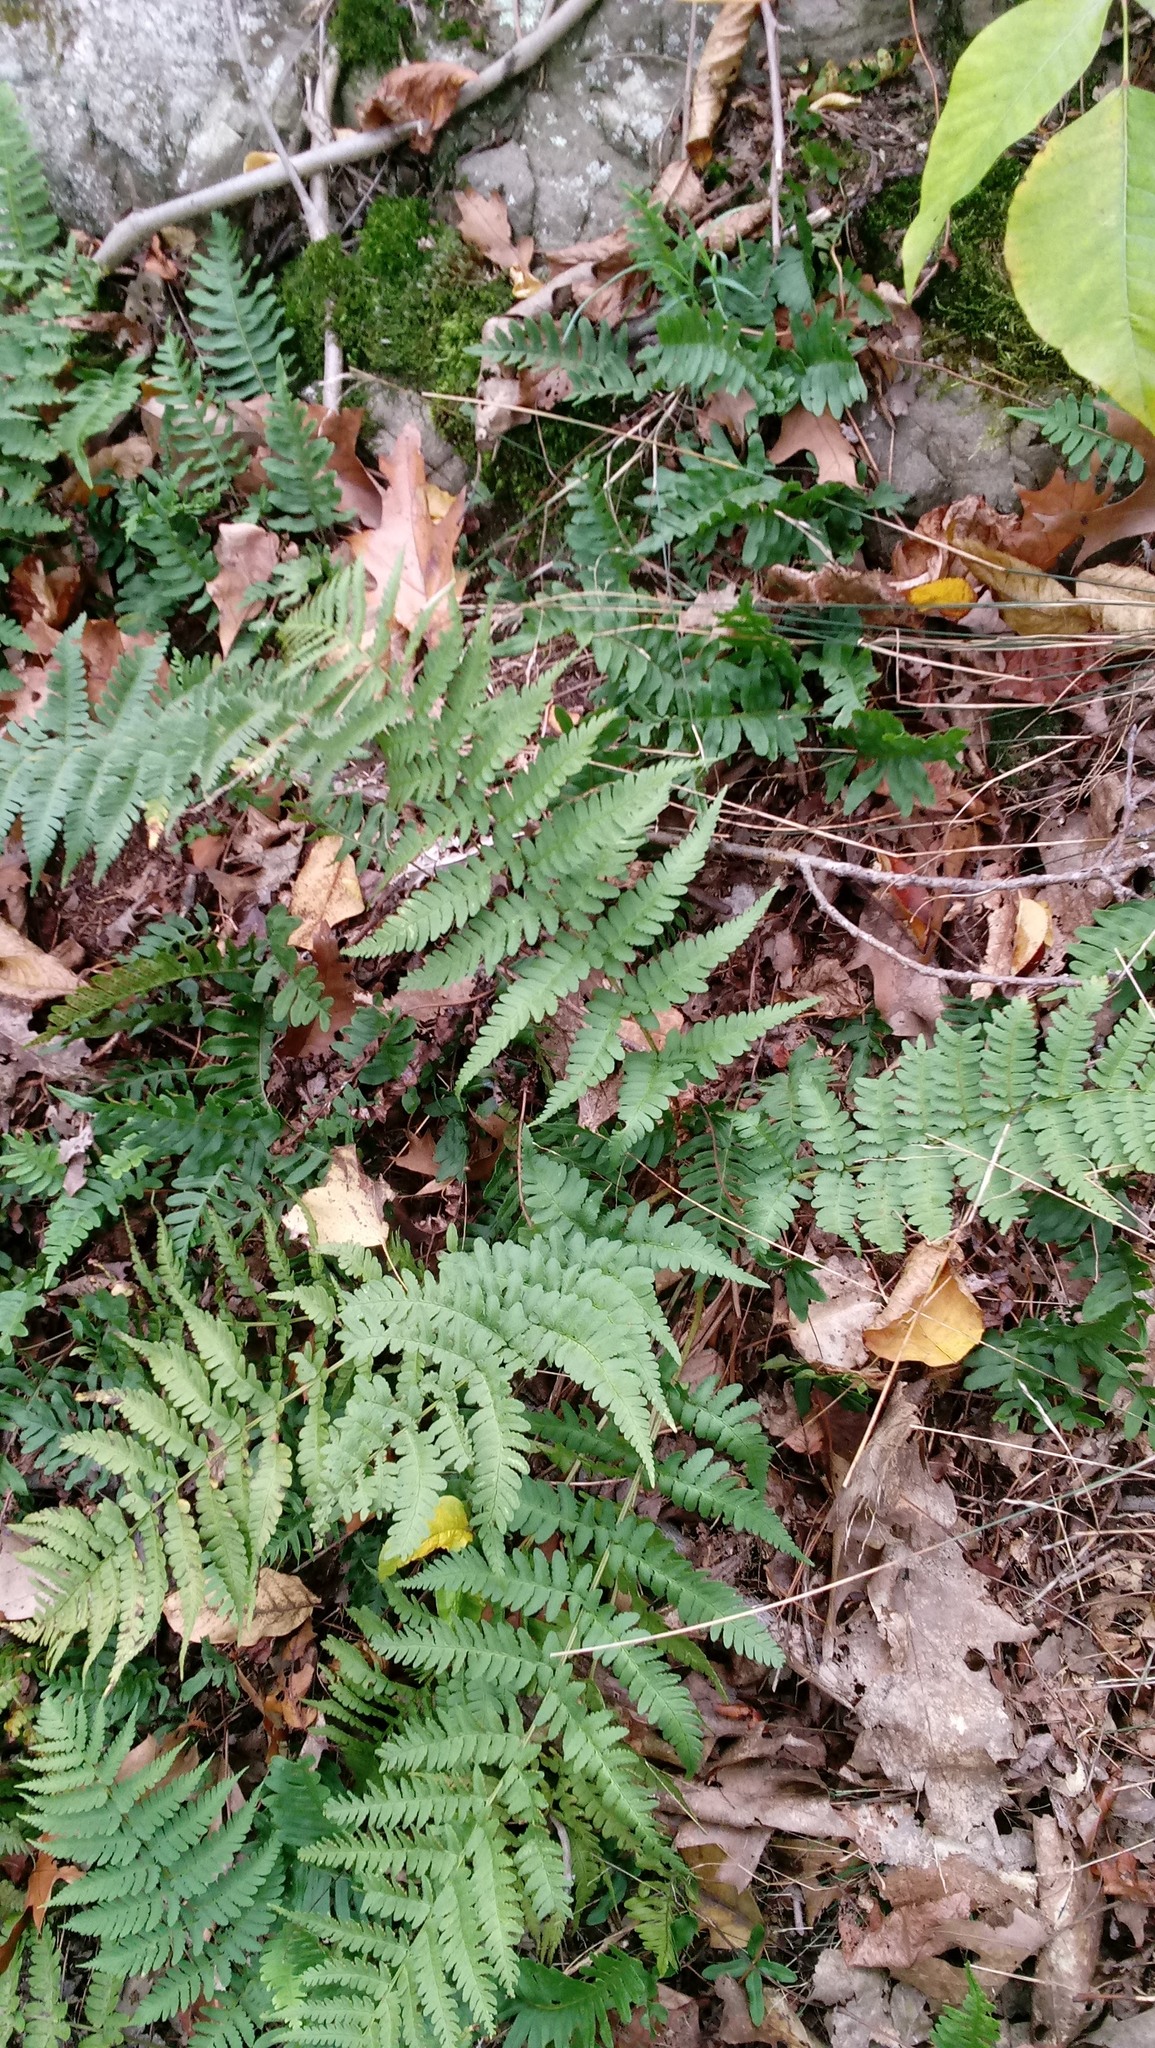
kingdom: Plantae
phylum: Tracheophyta
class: Polypodiopsida
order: Polypodiales
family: Dryopteridaceae
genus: Dryopteris
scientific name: Dryopteris marginalis
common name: Marginal wood fern
